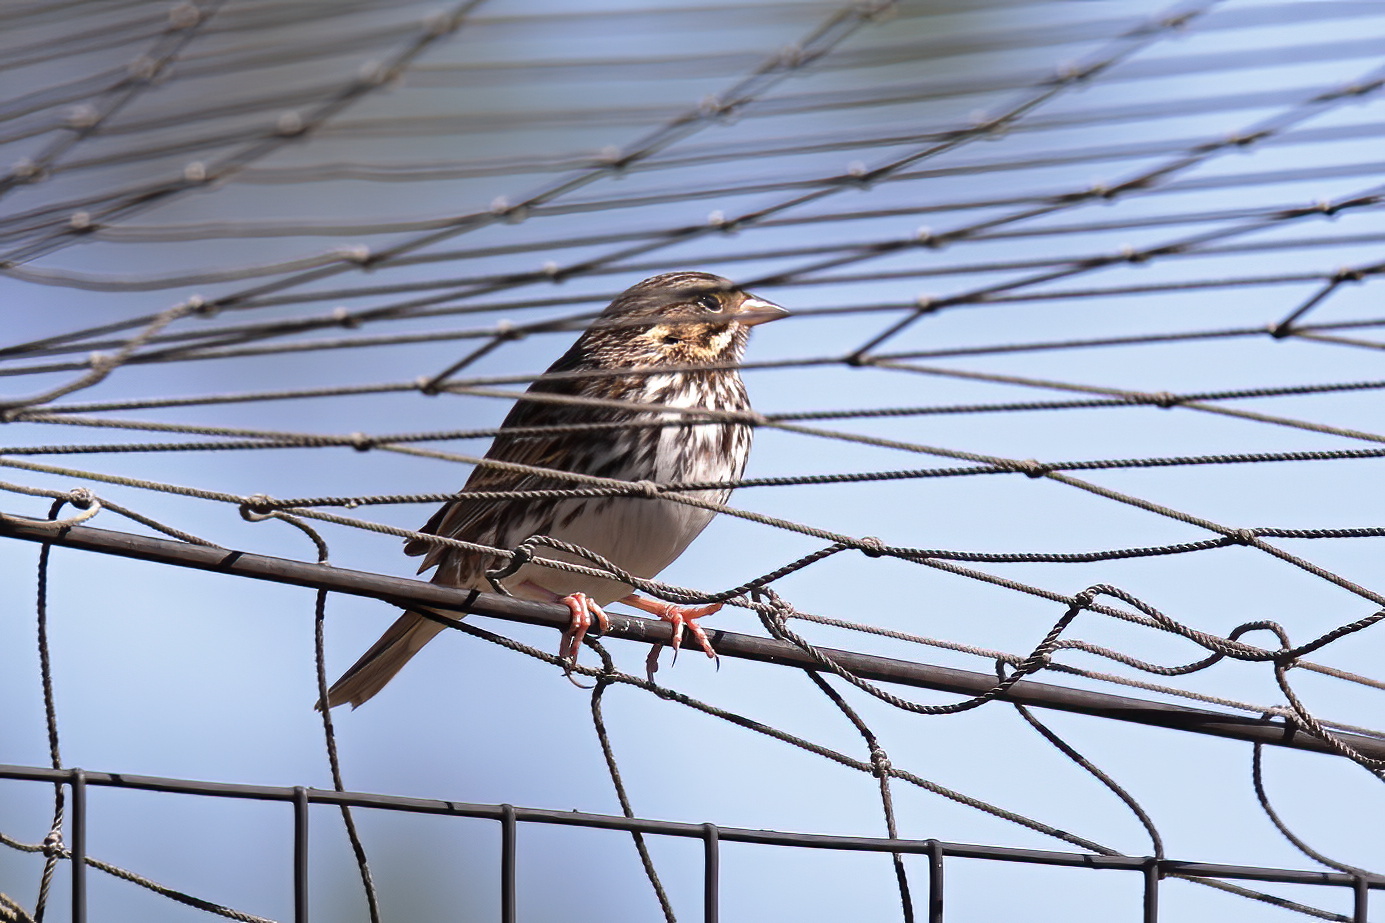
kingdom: Animalia
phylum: Chordata
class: Aves
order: Passeriformes
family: Passerellidae
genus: Passerculus
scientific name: Passerculus sandwichensis
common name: Savannah sparrow
